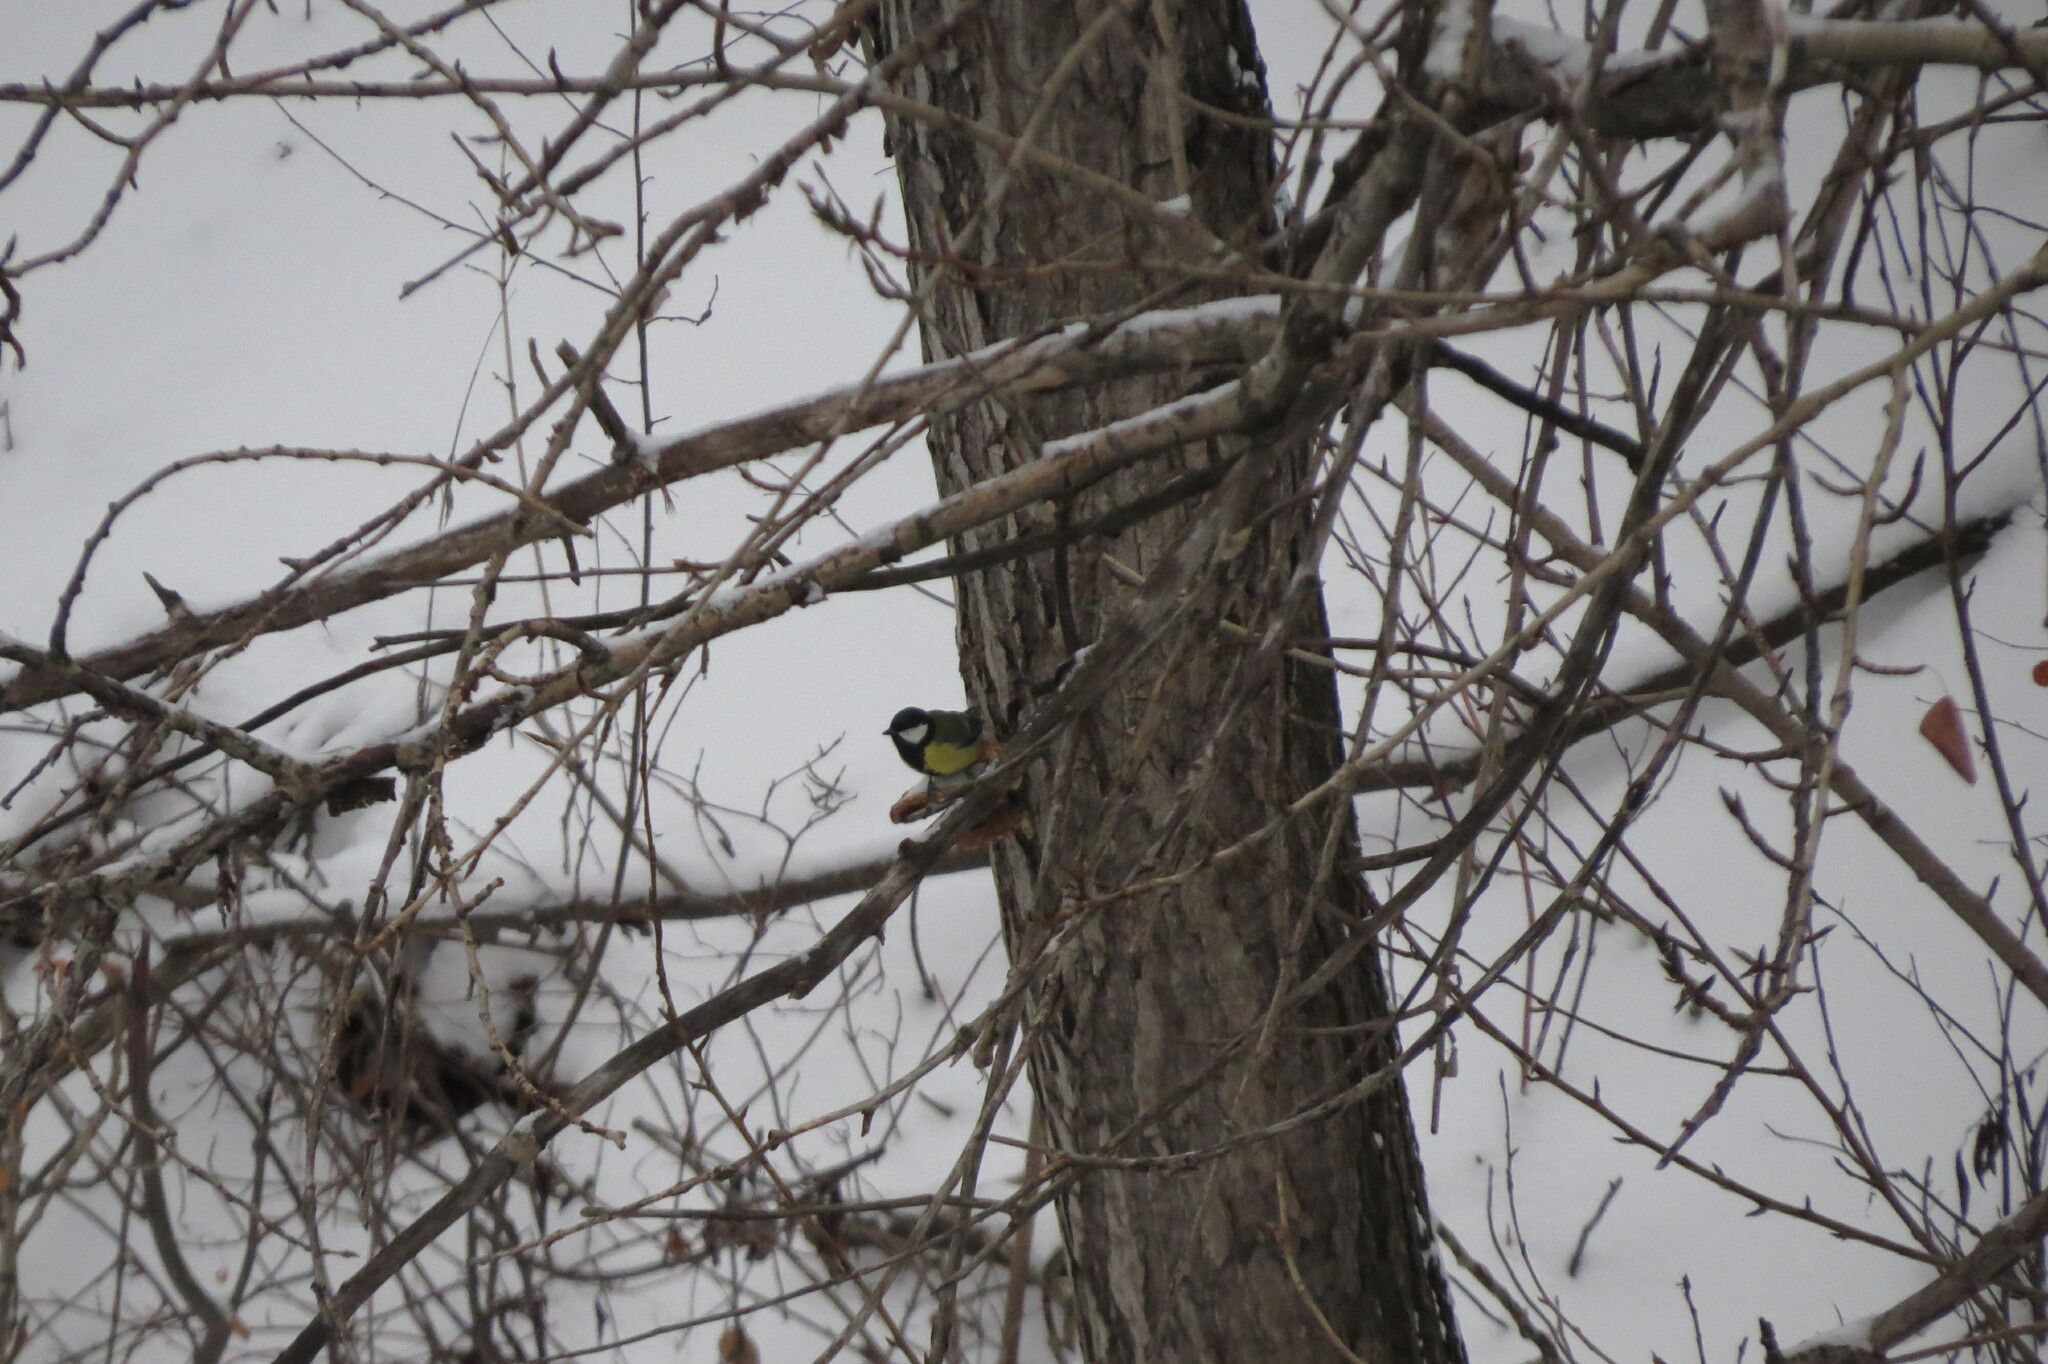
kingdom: Animalia
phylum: Chordata
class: Aves
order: Passeriformes
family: Paridae
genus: Parus
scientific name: Parus major
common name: Great tit
